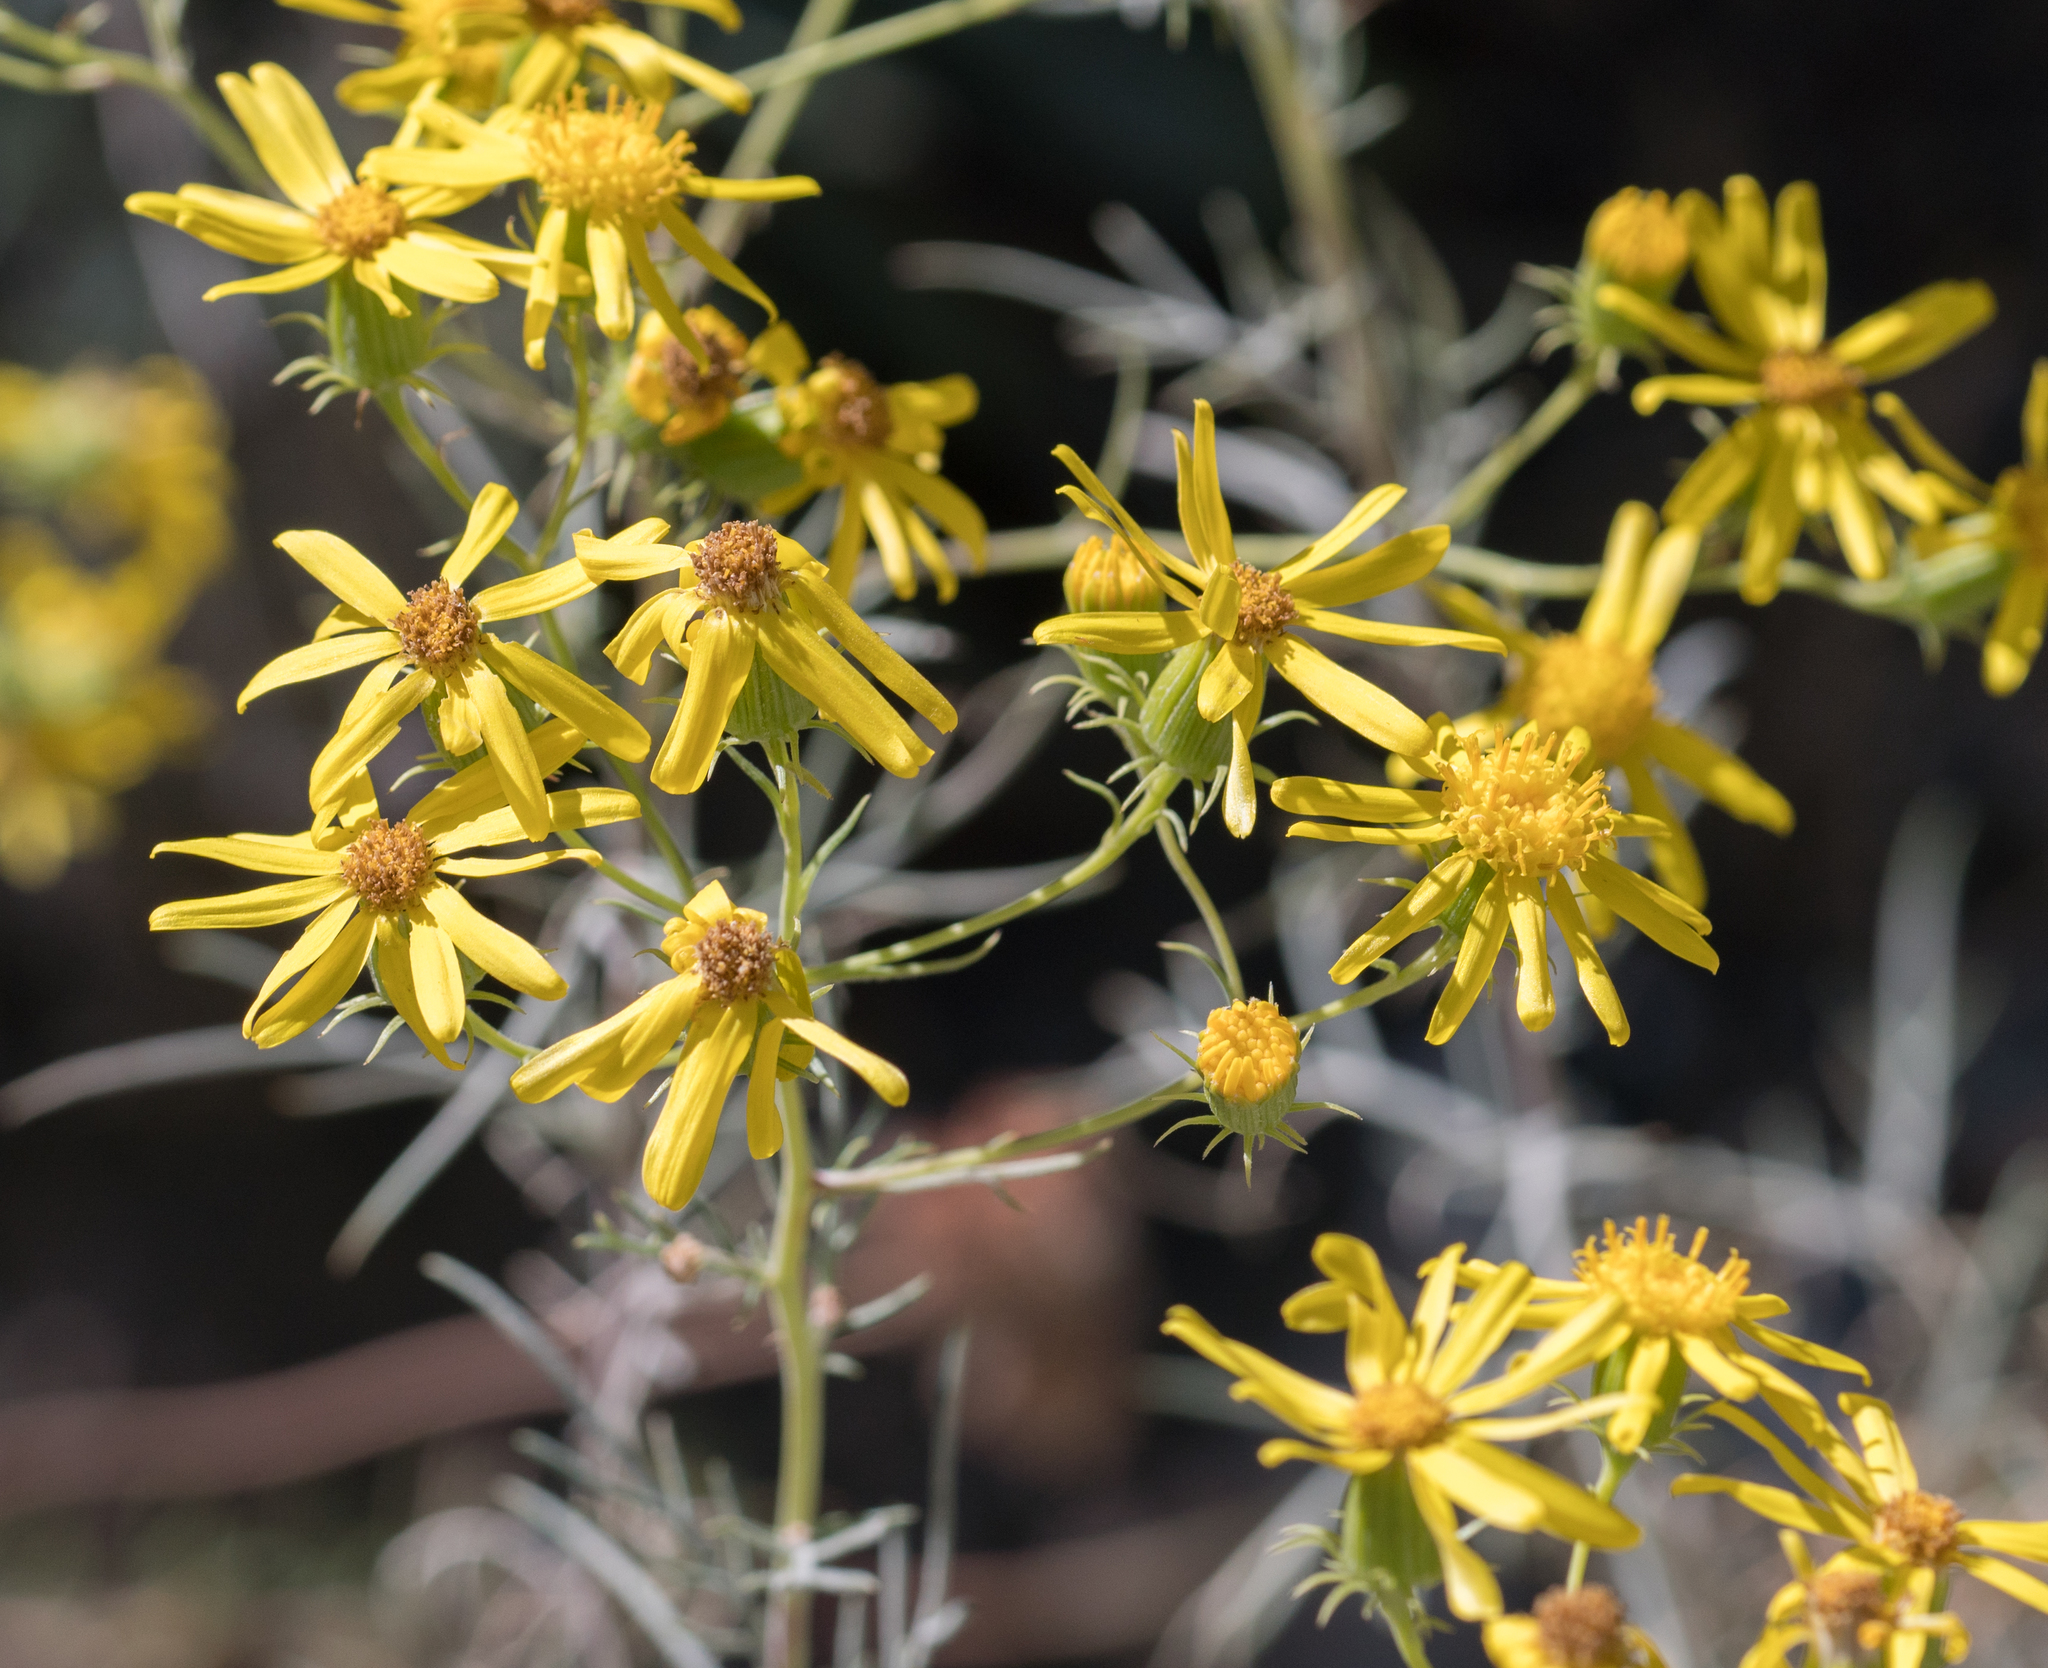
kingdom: Plantae
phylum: Tracheophyta
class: Magnoliopsida
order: Asterales
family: Asteraceae
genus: Senecio
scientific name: Senecio flaccidus
